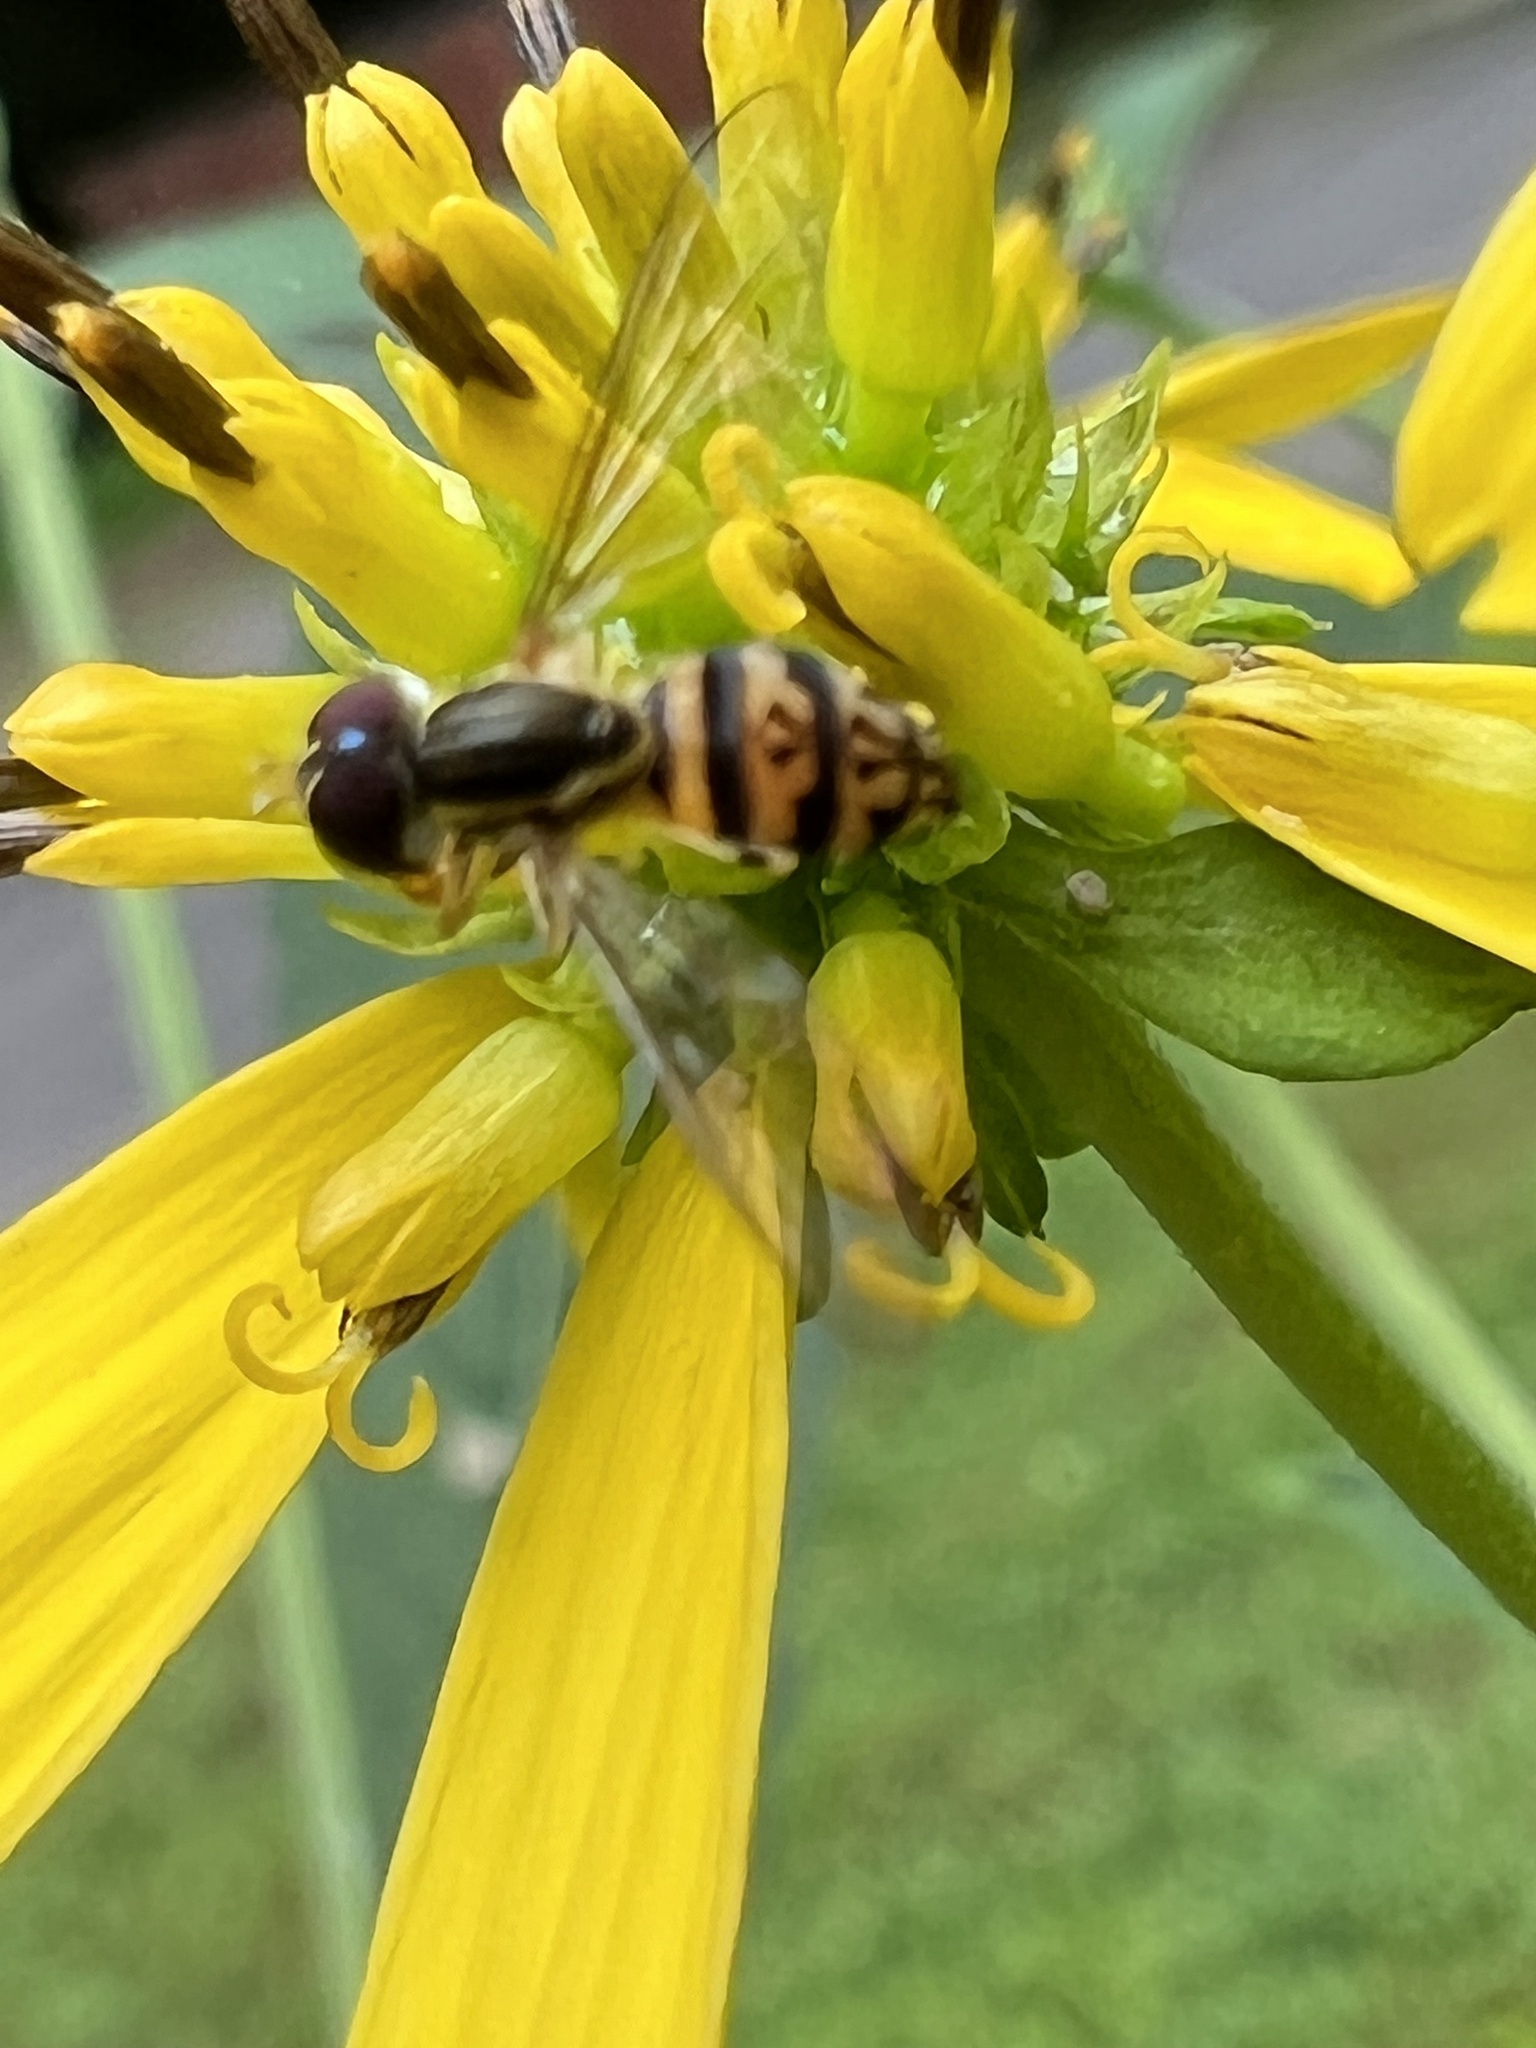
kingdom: Animalia
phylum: Arthropoda
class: Insecta
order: Diptera
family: Syrphidae
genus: Toxomerus
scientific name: Toxomerus geminatus
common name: Eastern calligrapher
